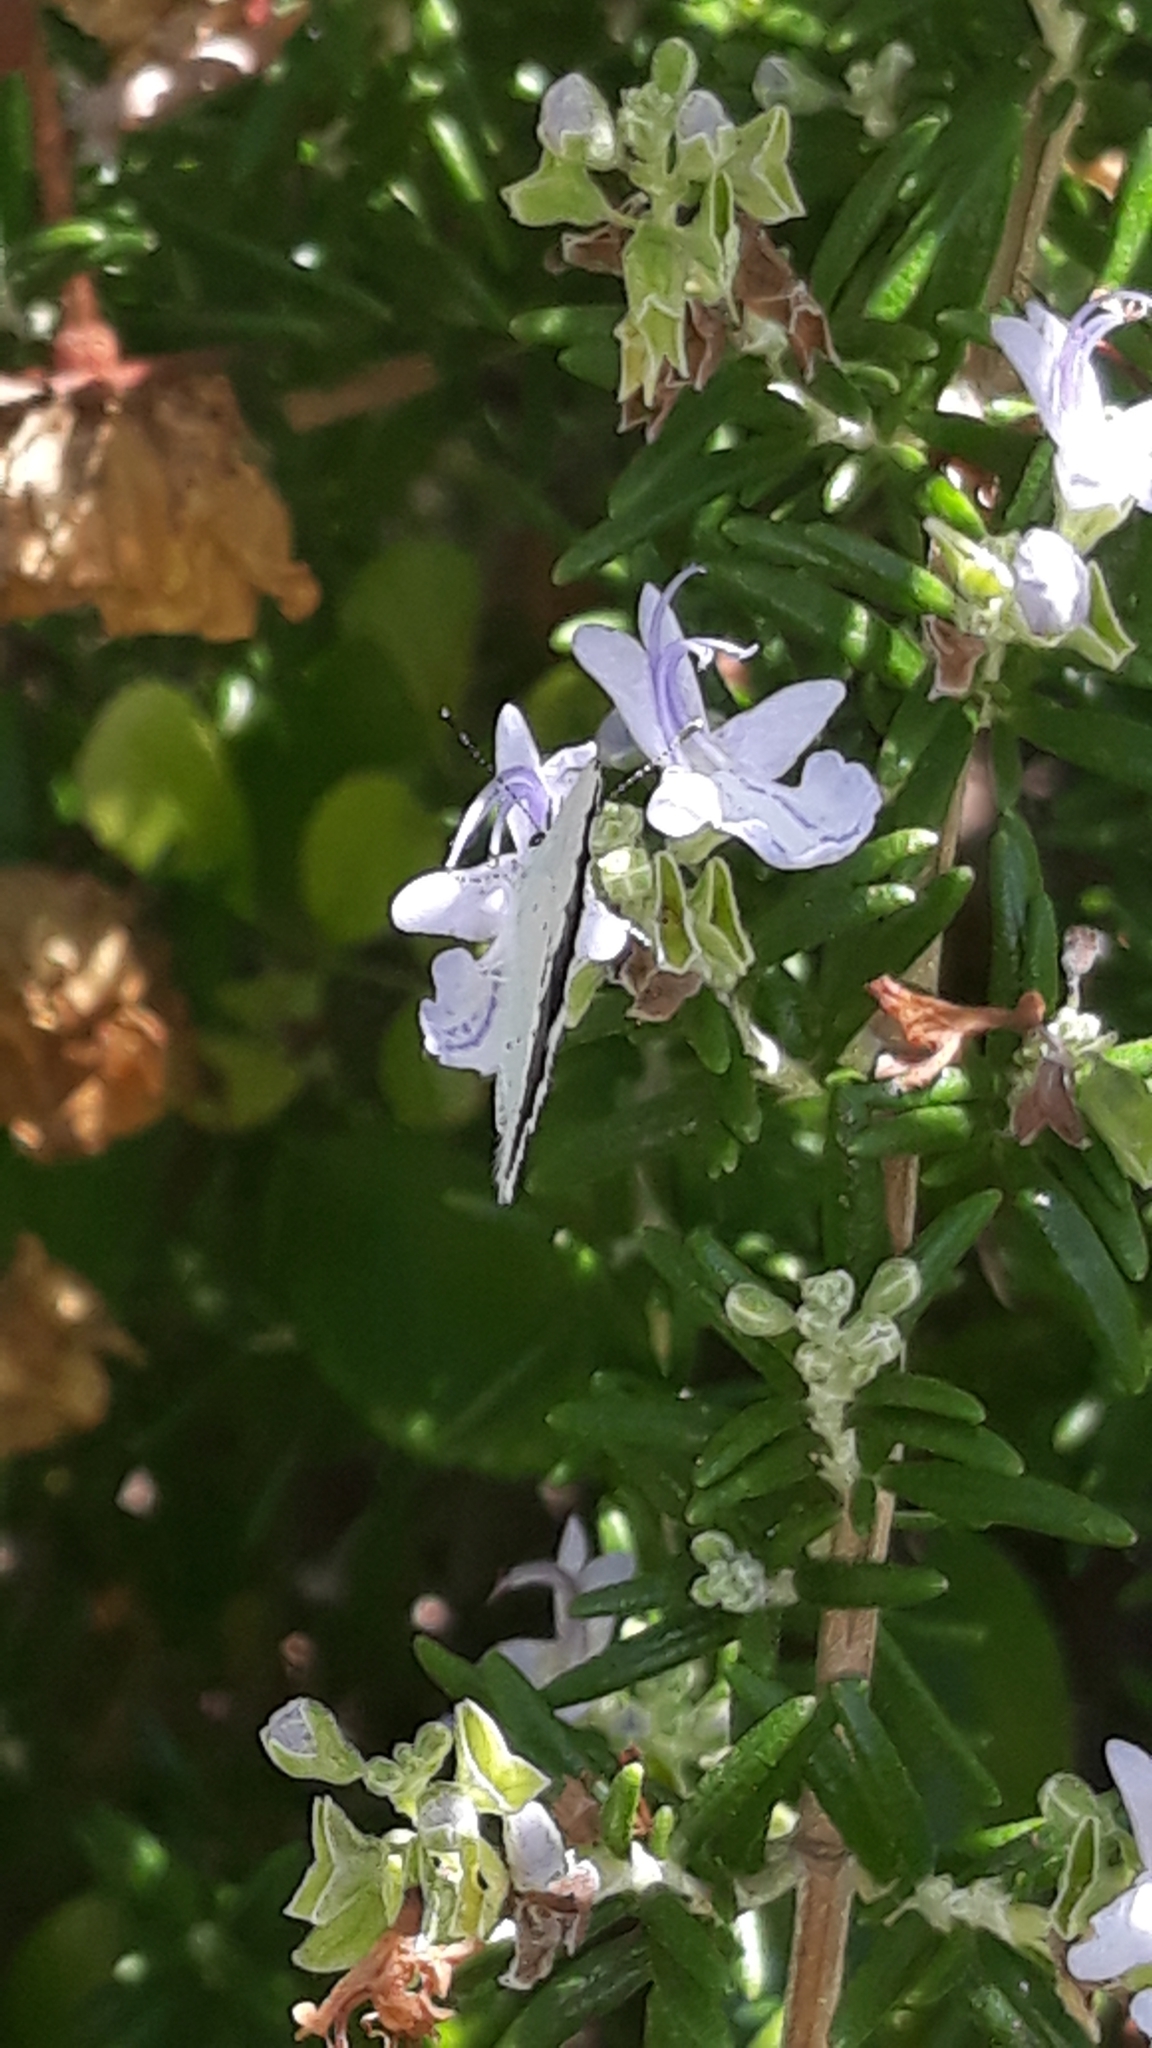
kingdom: Animalia
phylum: Arthropoda
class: Insecta
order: Lepidoptera
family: Lycaenidae
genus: Celastrina
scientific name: Celastrina argiolus
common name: Holly blue
